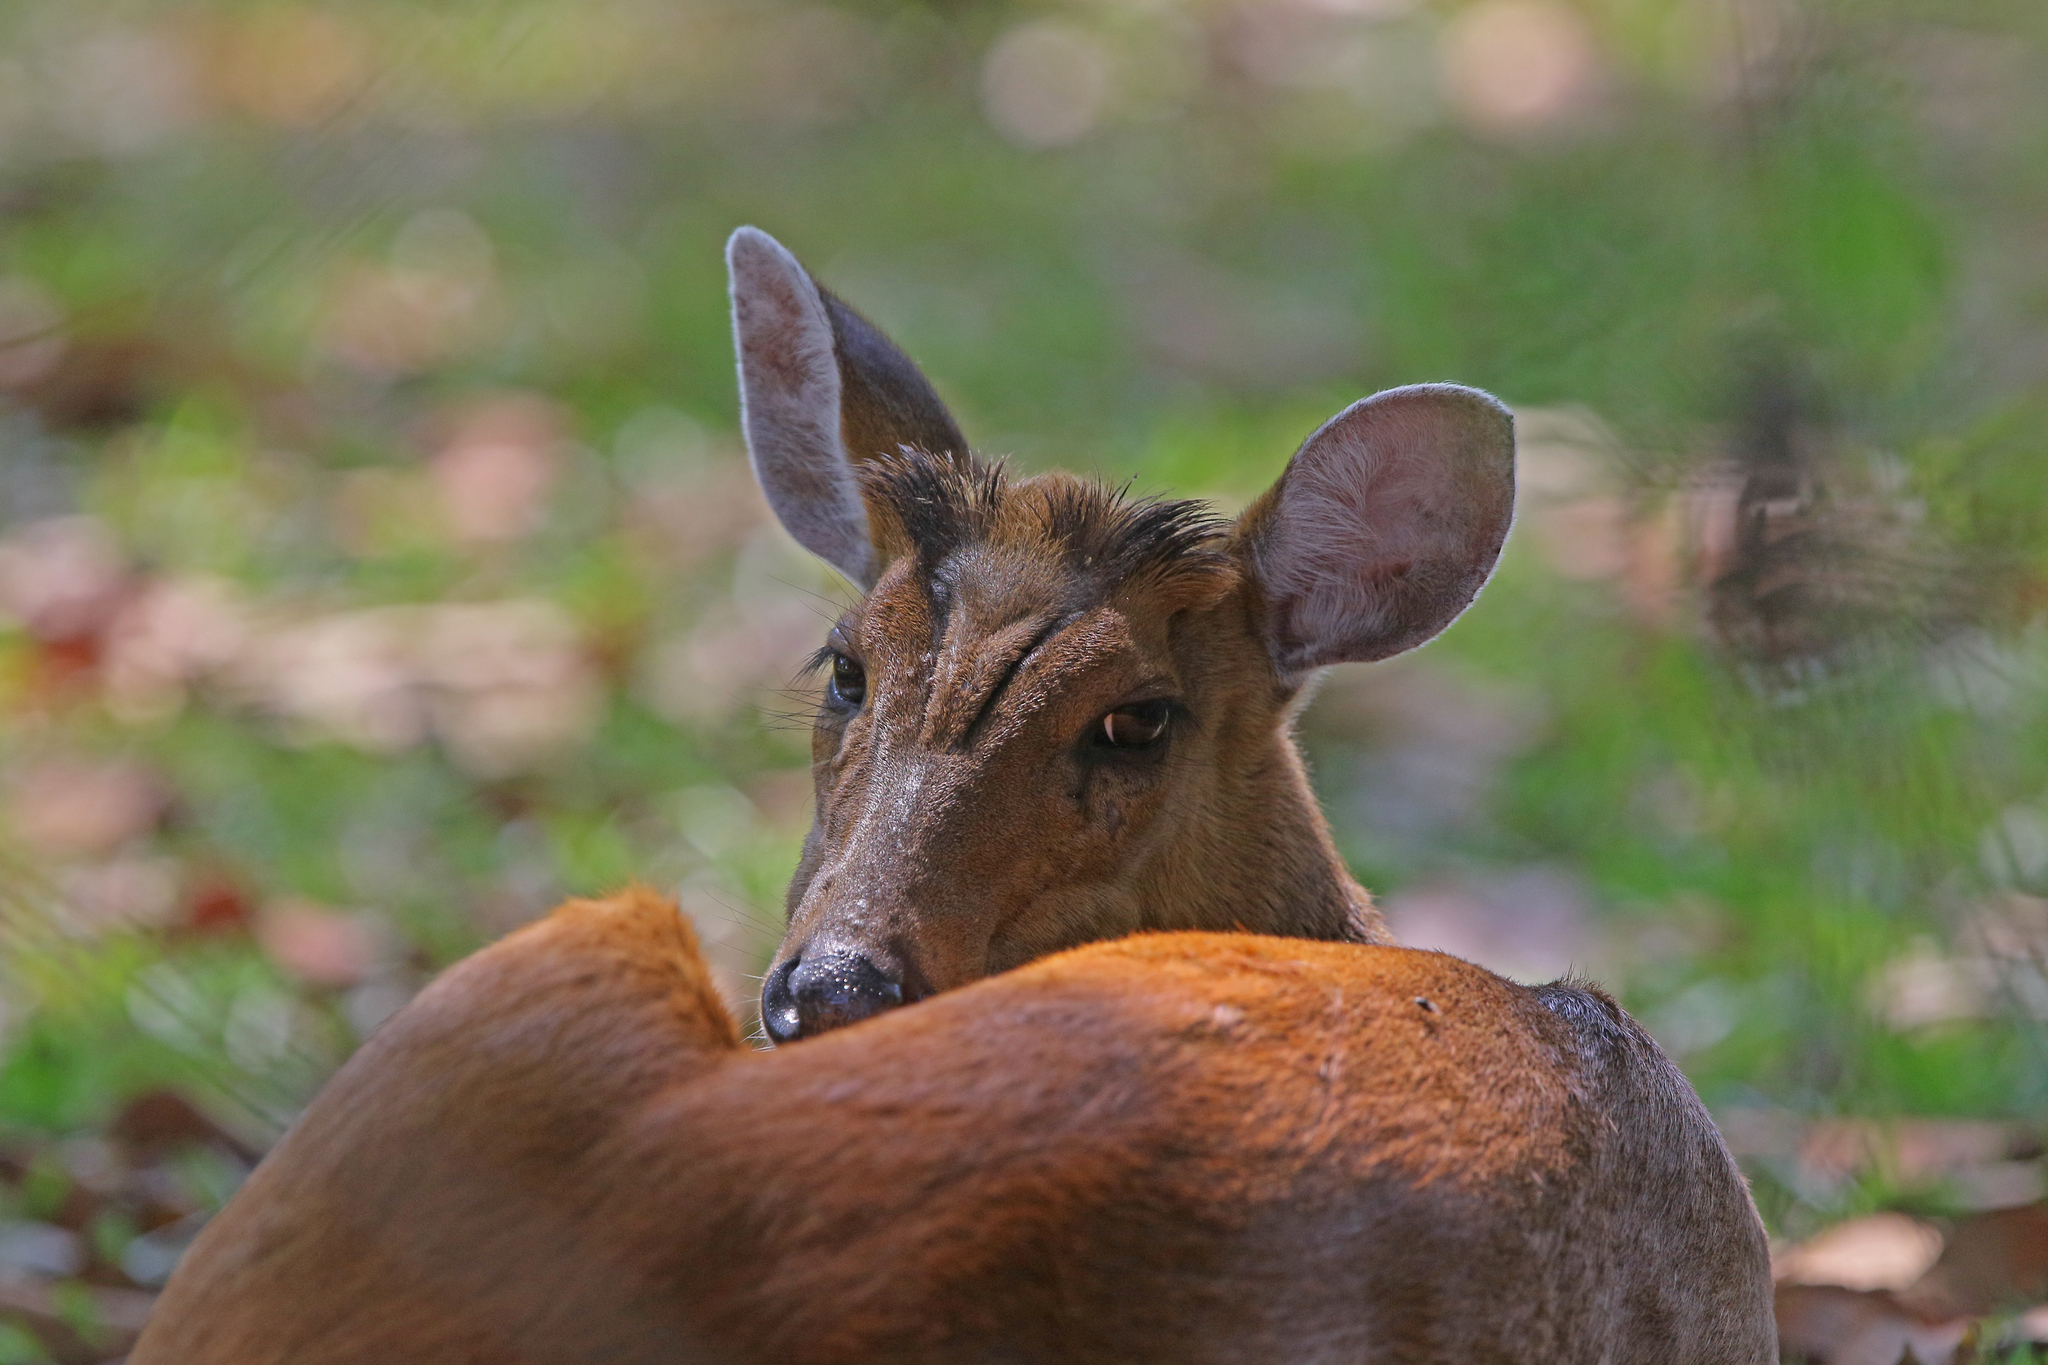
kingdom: Animalia
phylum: Chordata
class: Mammalia
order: Artiodactyla
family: Cervidae
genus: Muntiacus
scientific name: Muntiacus muntjak
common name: Indian muntjac
